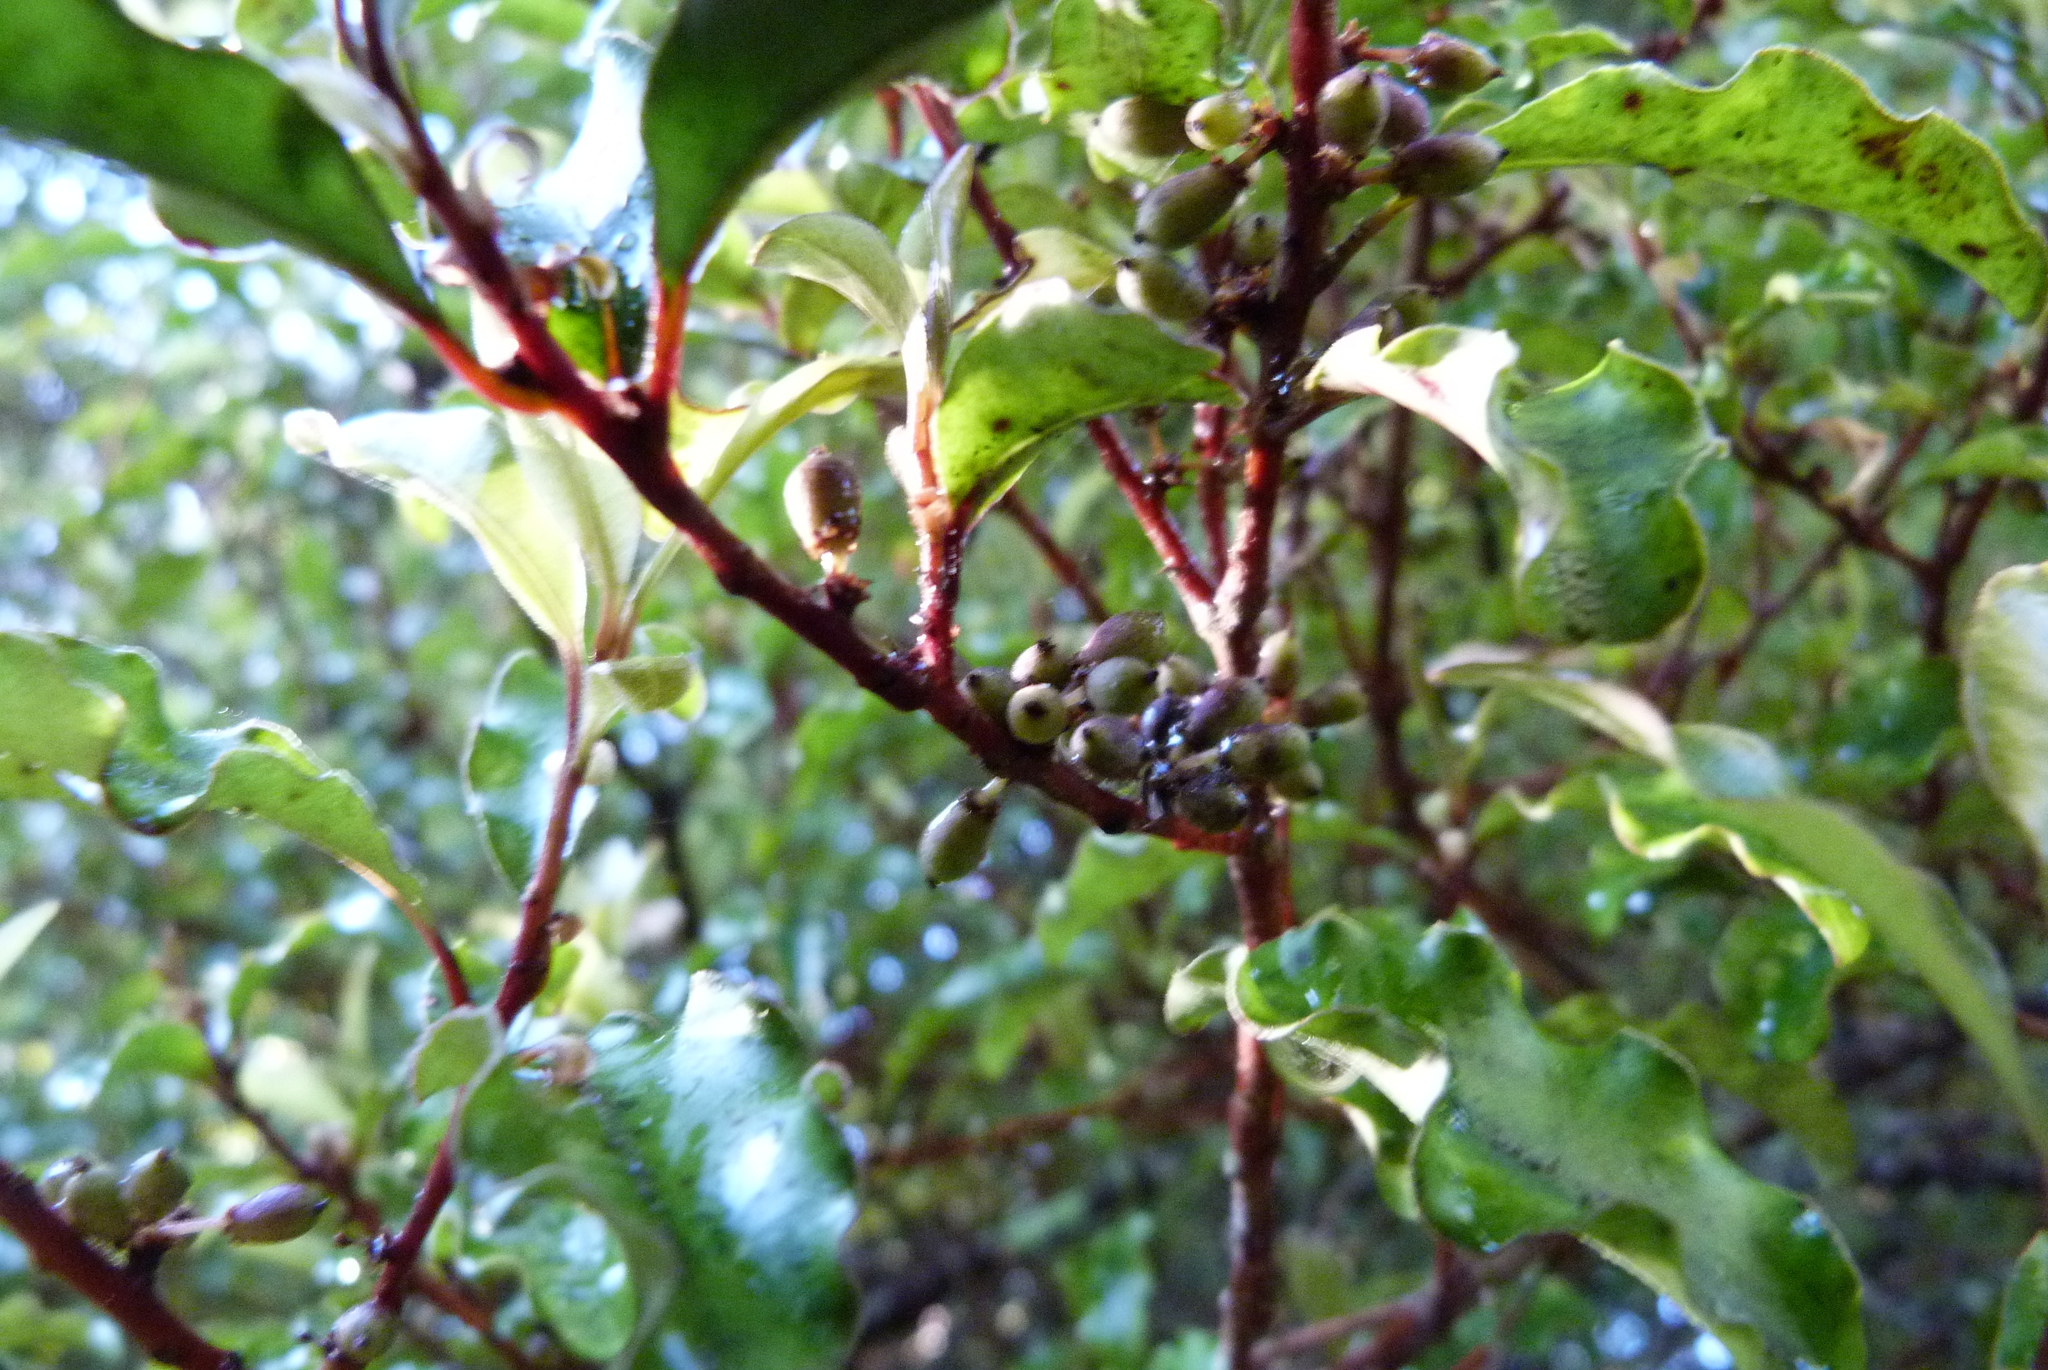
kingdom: Plantae
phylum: Tracheophyta
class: Magnoliopsida
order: Ericales
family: Primulaceae
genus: Myrsine
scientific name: Myrsine australis
